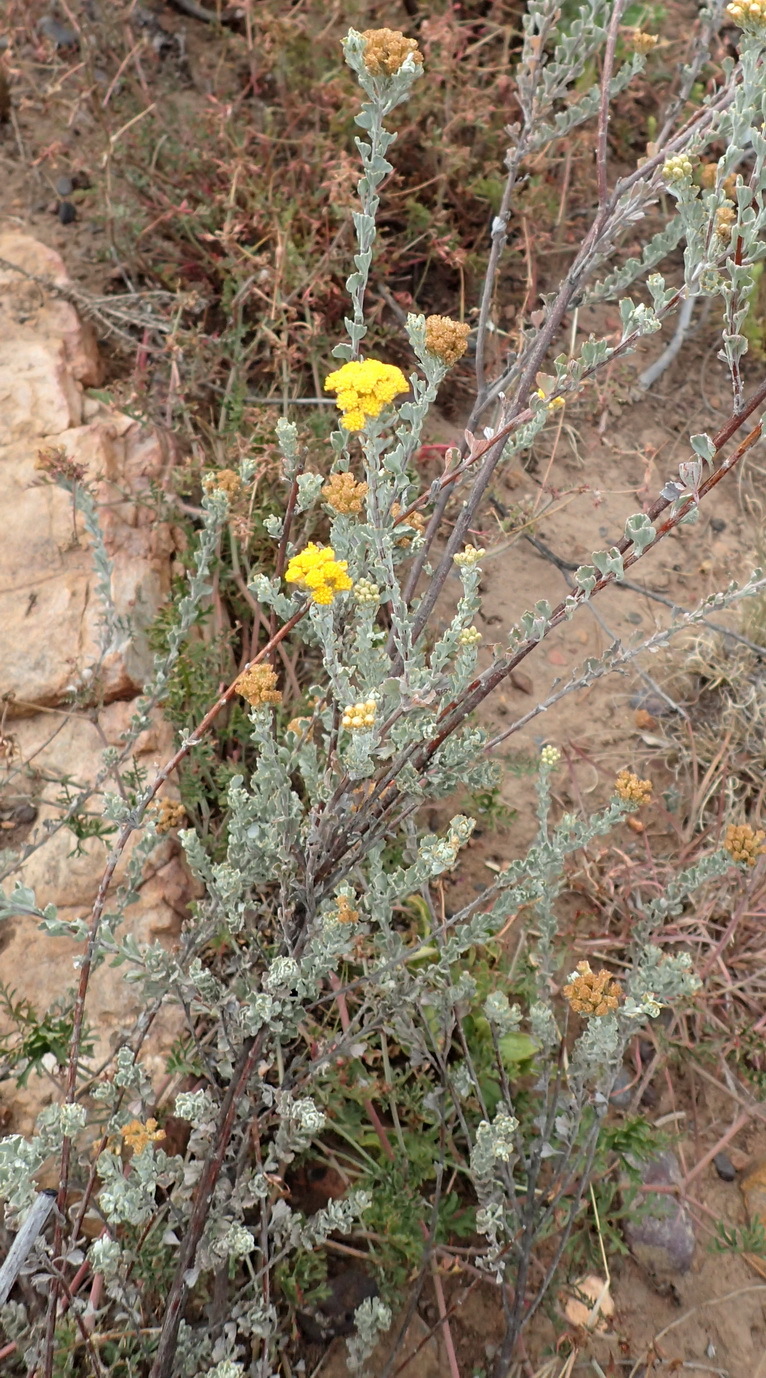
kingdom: Plantae
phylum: Tracheophyta
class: Magnoliopsida
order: Asterales
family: Asteraceae
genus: Pentzia
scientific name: Pentzia dentata
